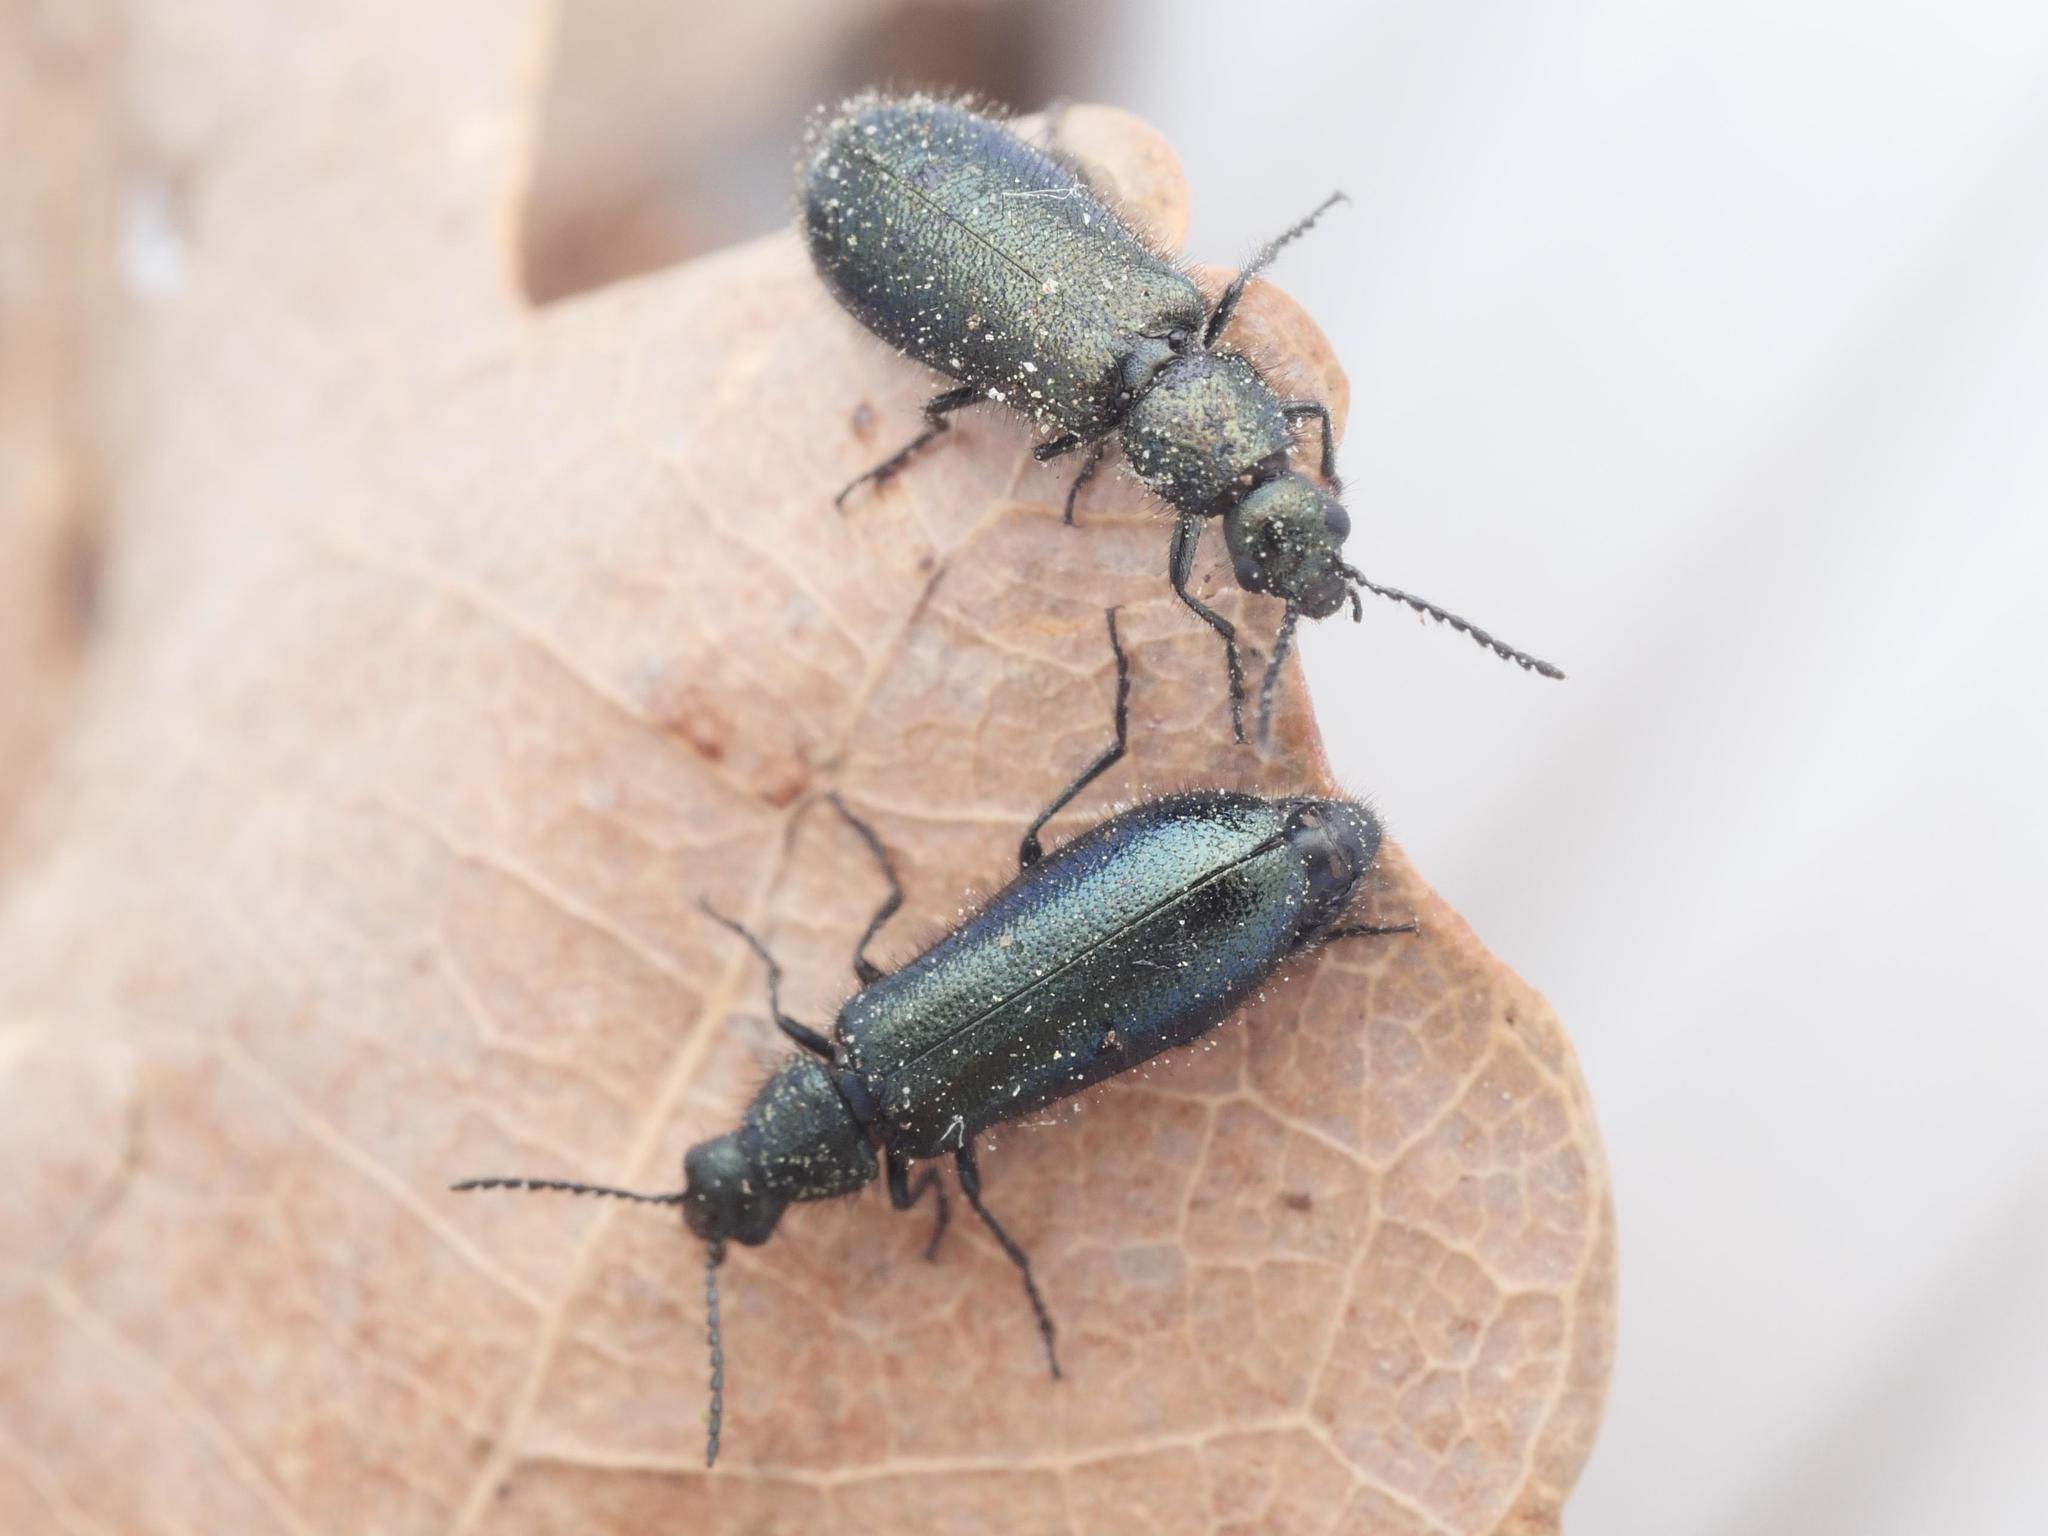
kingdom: Animalia
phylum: Arthropoda
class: Insecta
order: Coleoptera
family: Melyridae
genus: Dasytes
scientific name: Dasytes caeruleus
